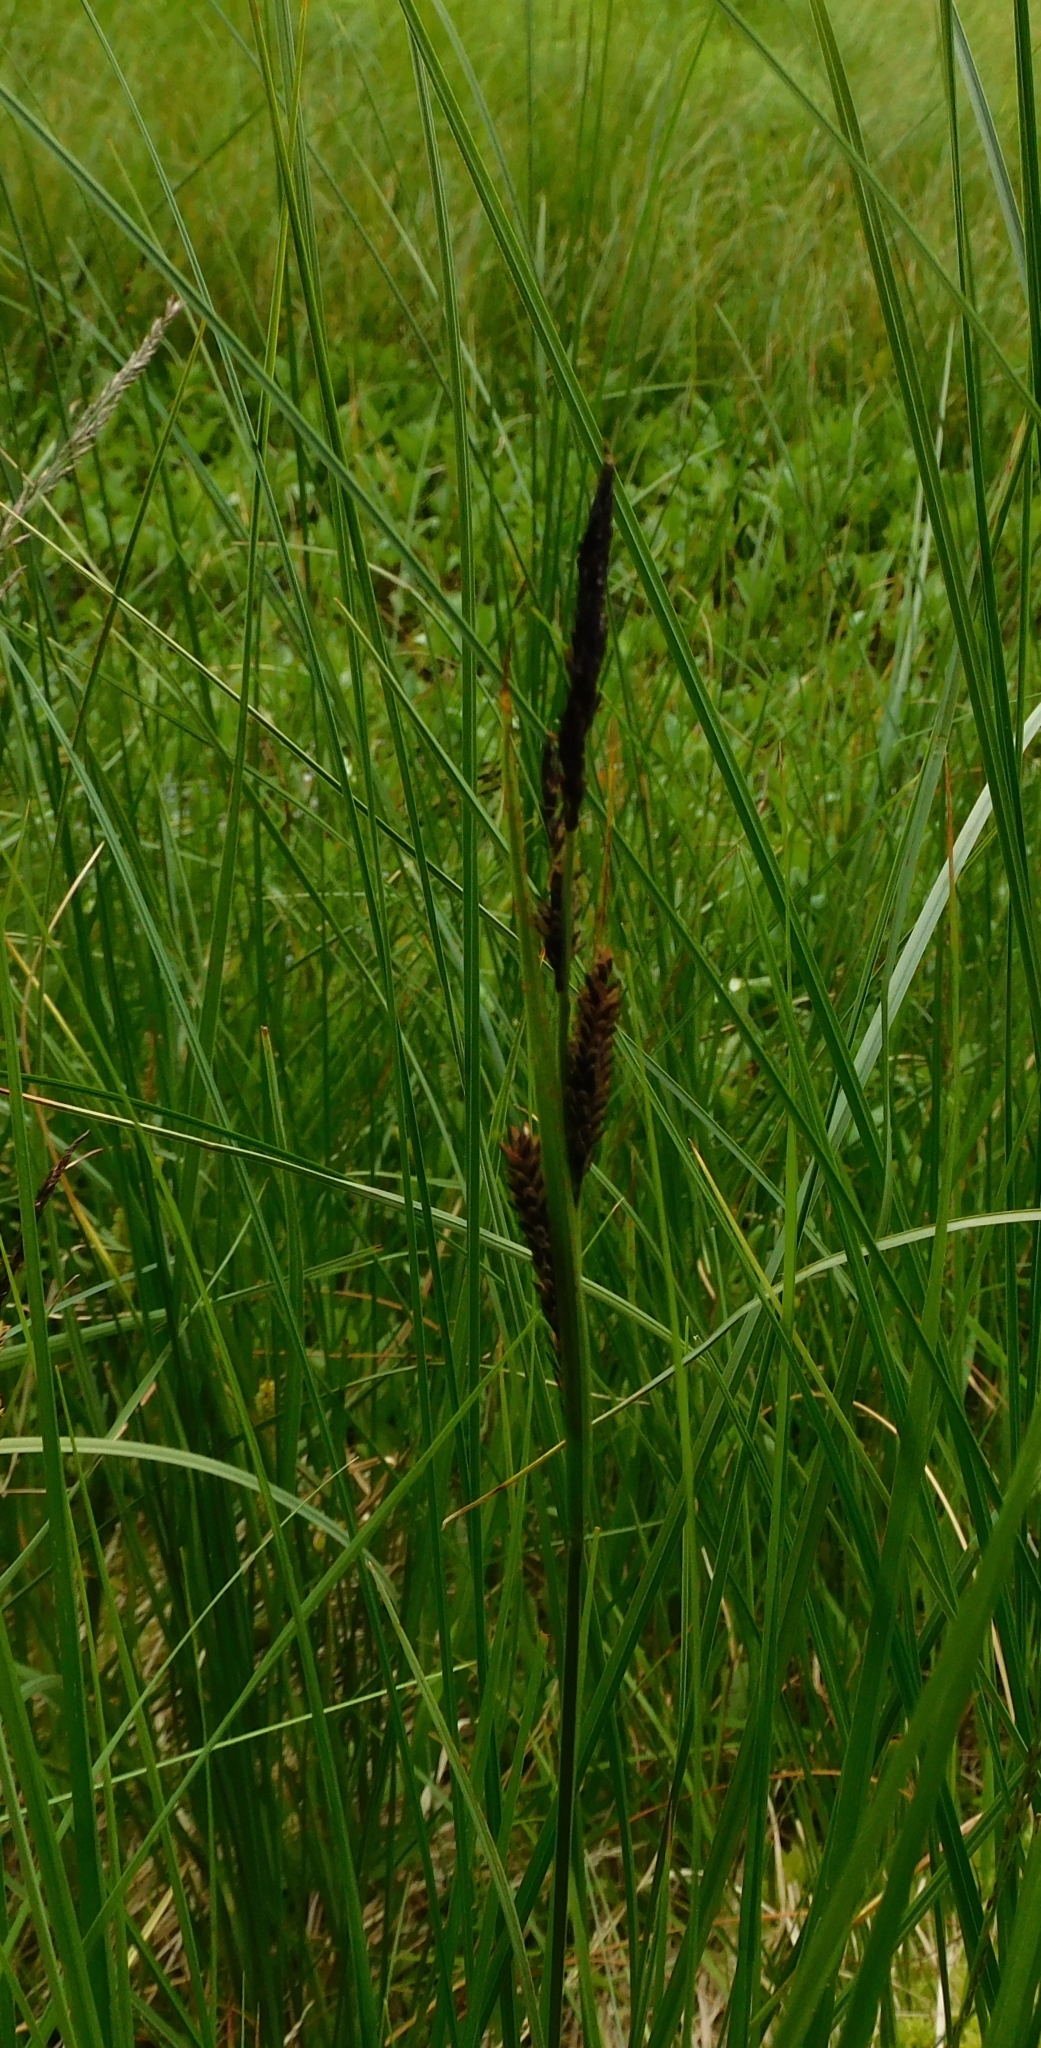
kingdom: Plantae
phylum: Tracheophyta
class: Liliopsida
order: Poales
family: Cyperaceae
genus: Carex
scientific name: Carex nigra
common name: Common sedge
